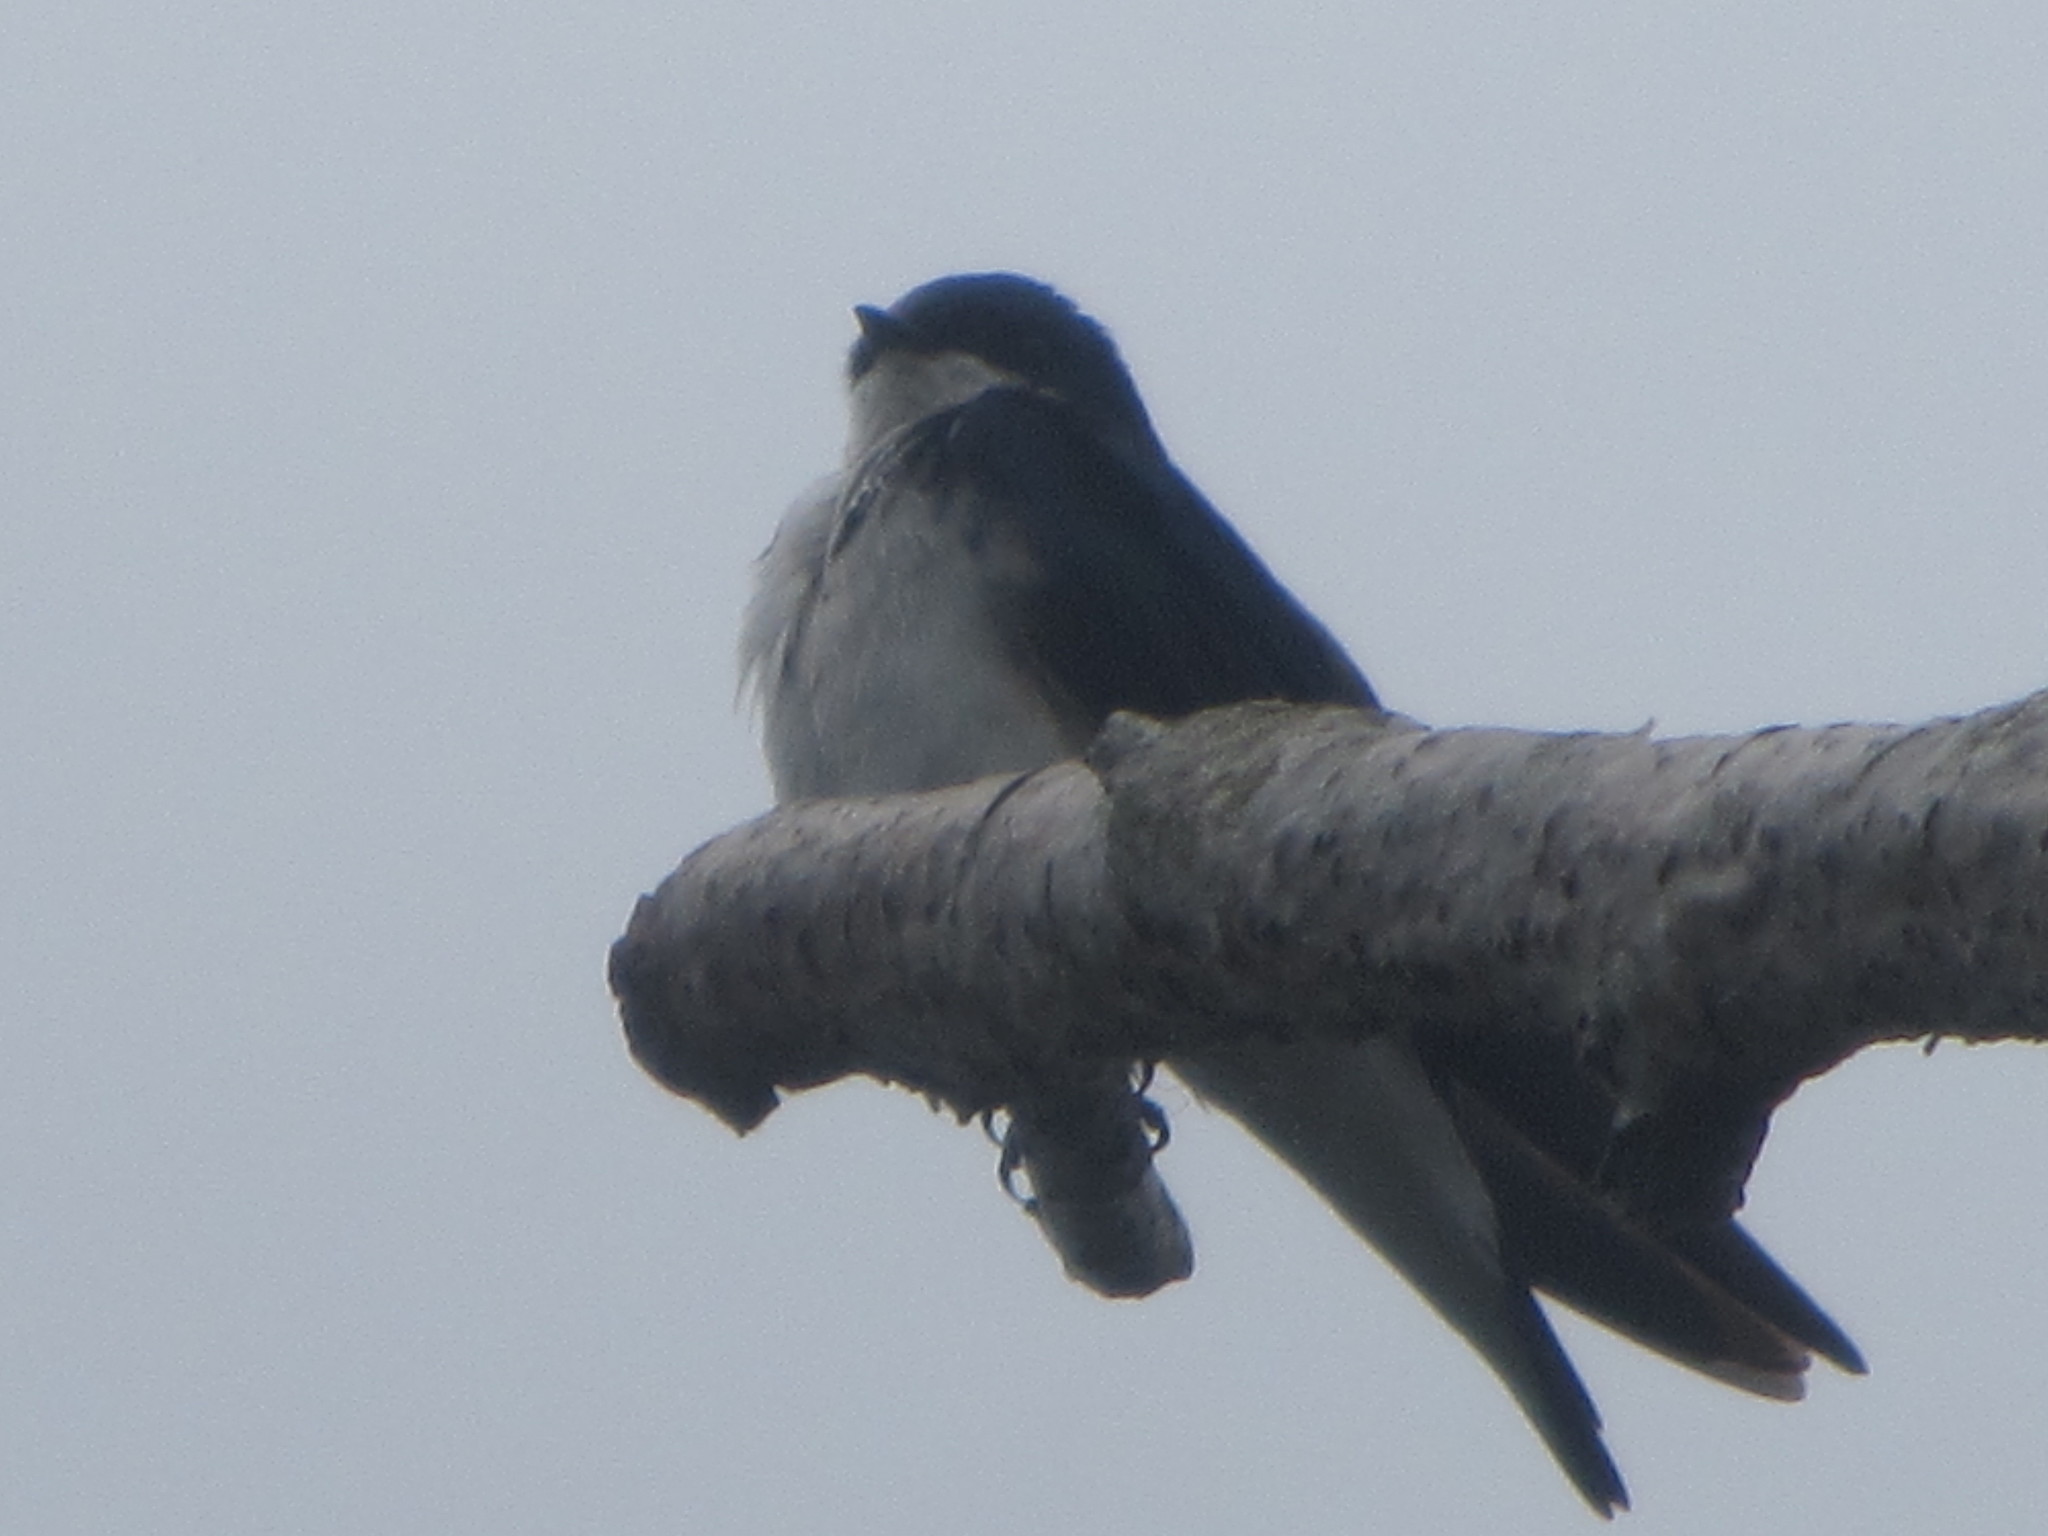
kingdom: Animalia
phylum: Chordata
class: Aves
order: Passeriformes
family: Hirundinidae
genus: Tachycineta
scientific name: Tachycineta bicolor
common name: Tree swallow
